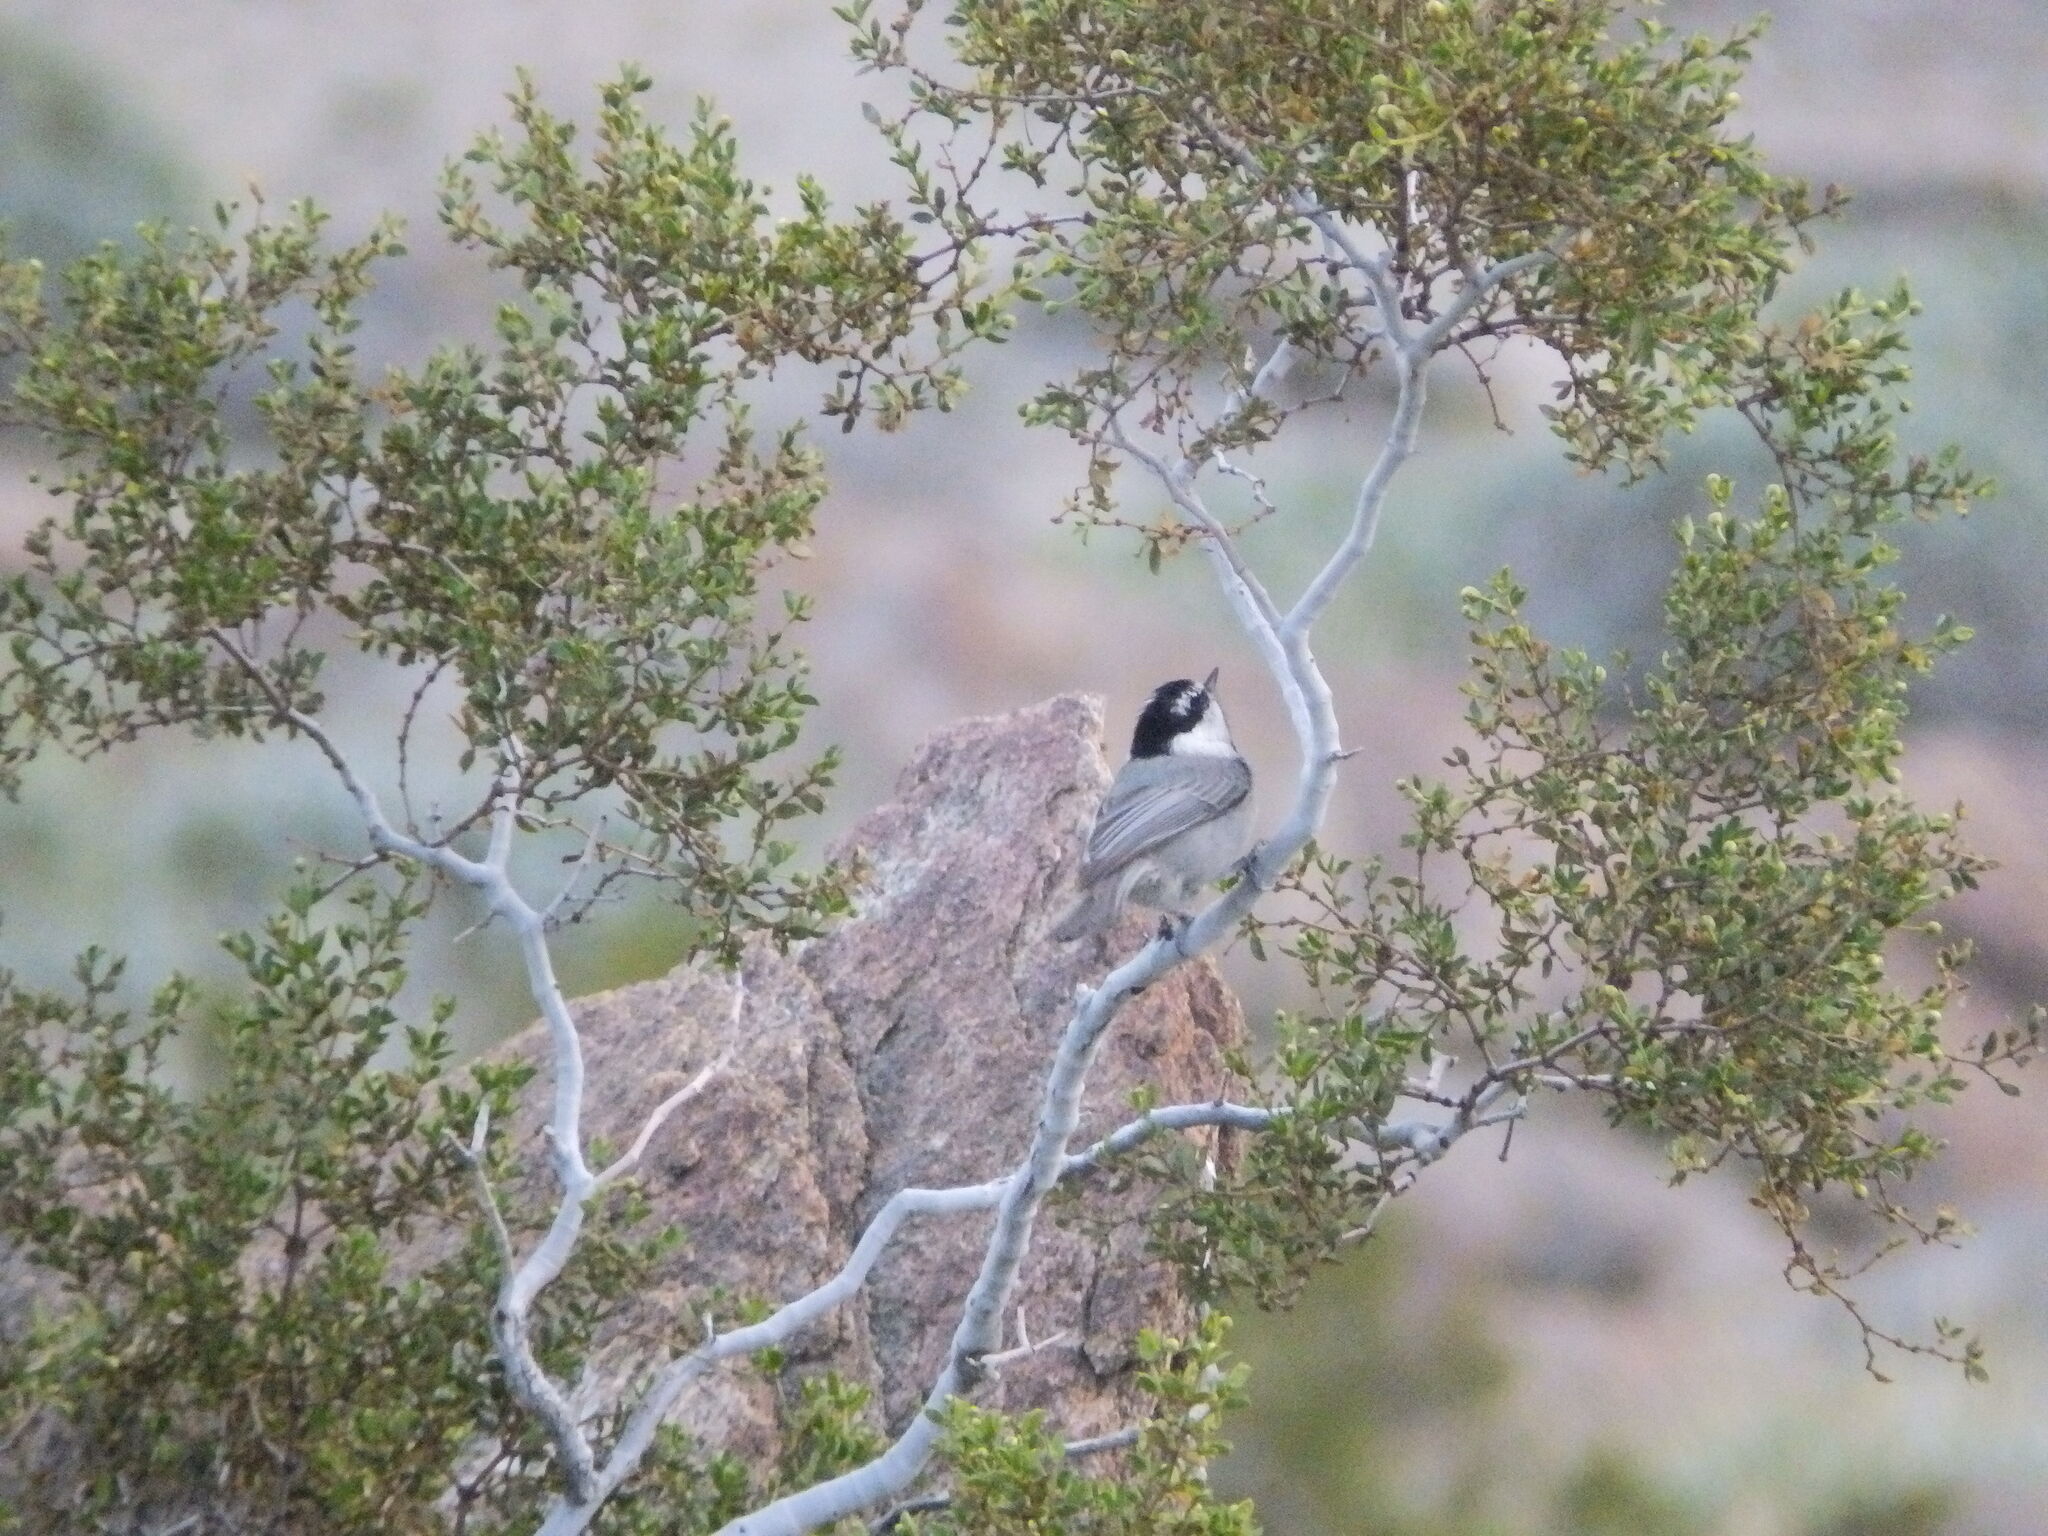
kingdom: Animalia
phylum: Chordata
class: Aves
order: Passeriformes
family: Paridae
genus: Poecile
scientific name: Poecile gambeli
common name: Mountain chickadee
